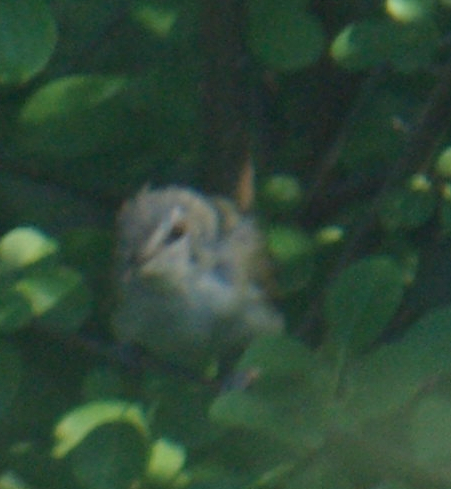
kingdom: Animalia
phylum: Chordata
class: Aves
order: Passeriformes
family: Vireonidae
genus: Vireo
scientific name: Vireo olivaceus
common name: Red-eyed vireo
